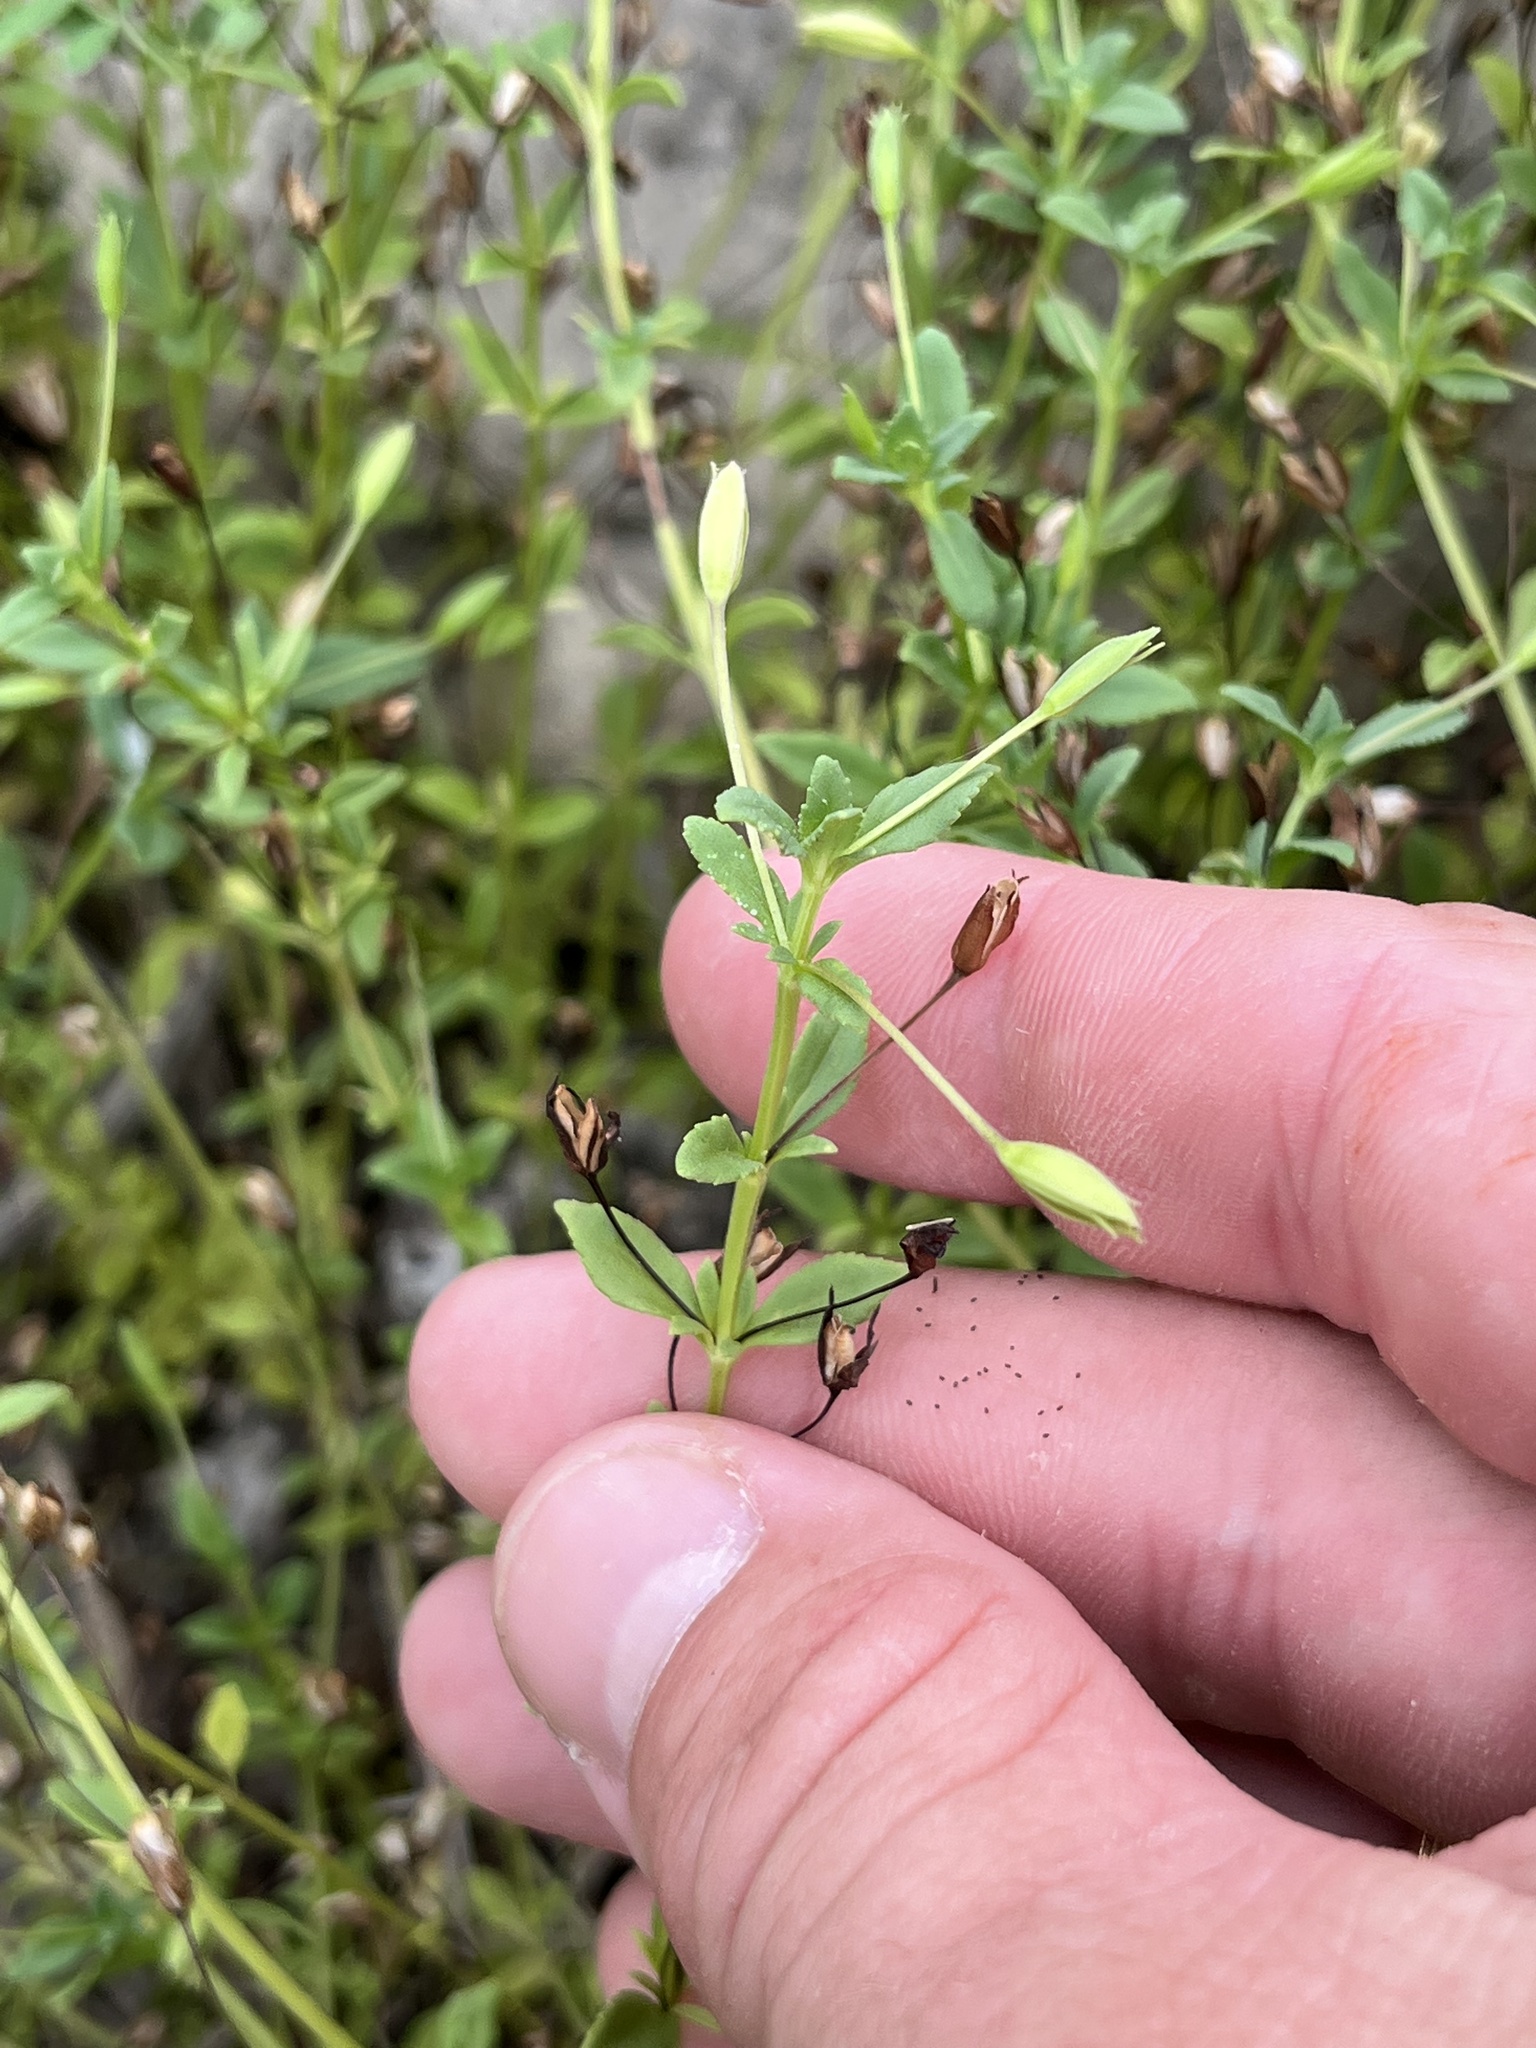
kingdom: Plantae
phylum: Tracheophyta
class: Magnoliopsida
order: Lamiales
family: Plantaginaceae
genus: Mecardonia
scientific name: Mecardonia procumbens
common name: Baby jump-up
